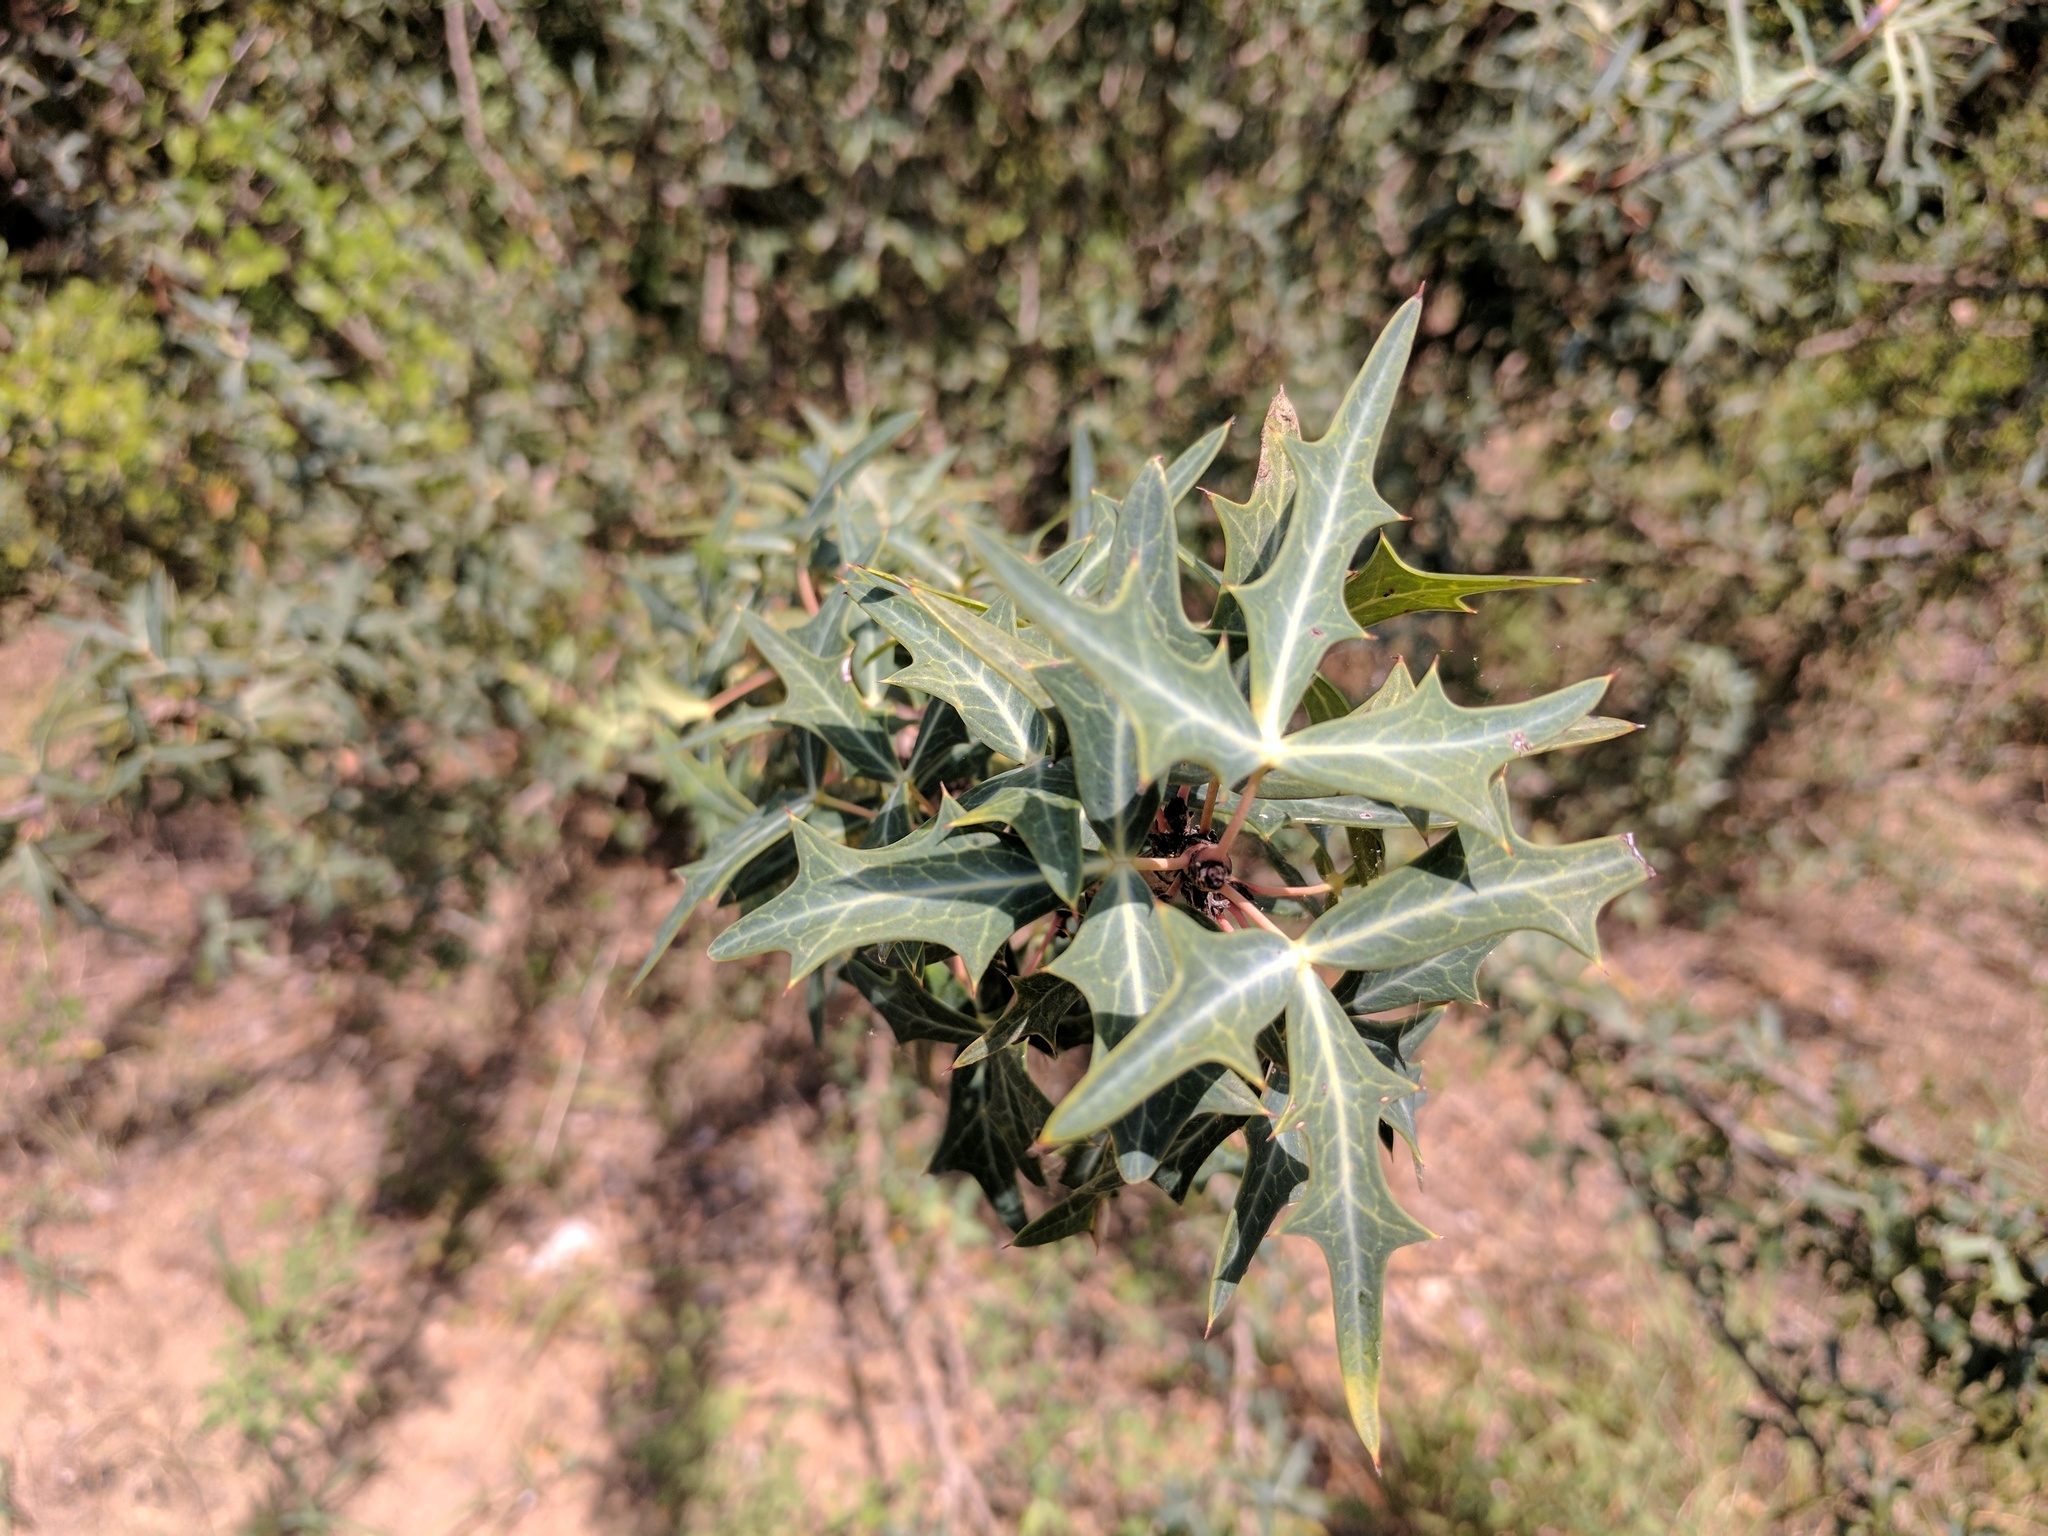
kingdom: Plantae
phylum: Tracheophyta
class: Magnoliopsida
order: Ranunculales
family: Berberidaceae
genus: Alloberberis
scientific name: Alloberberis trifoliolata
